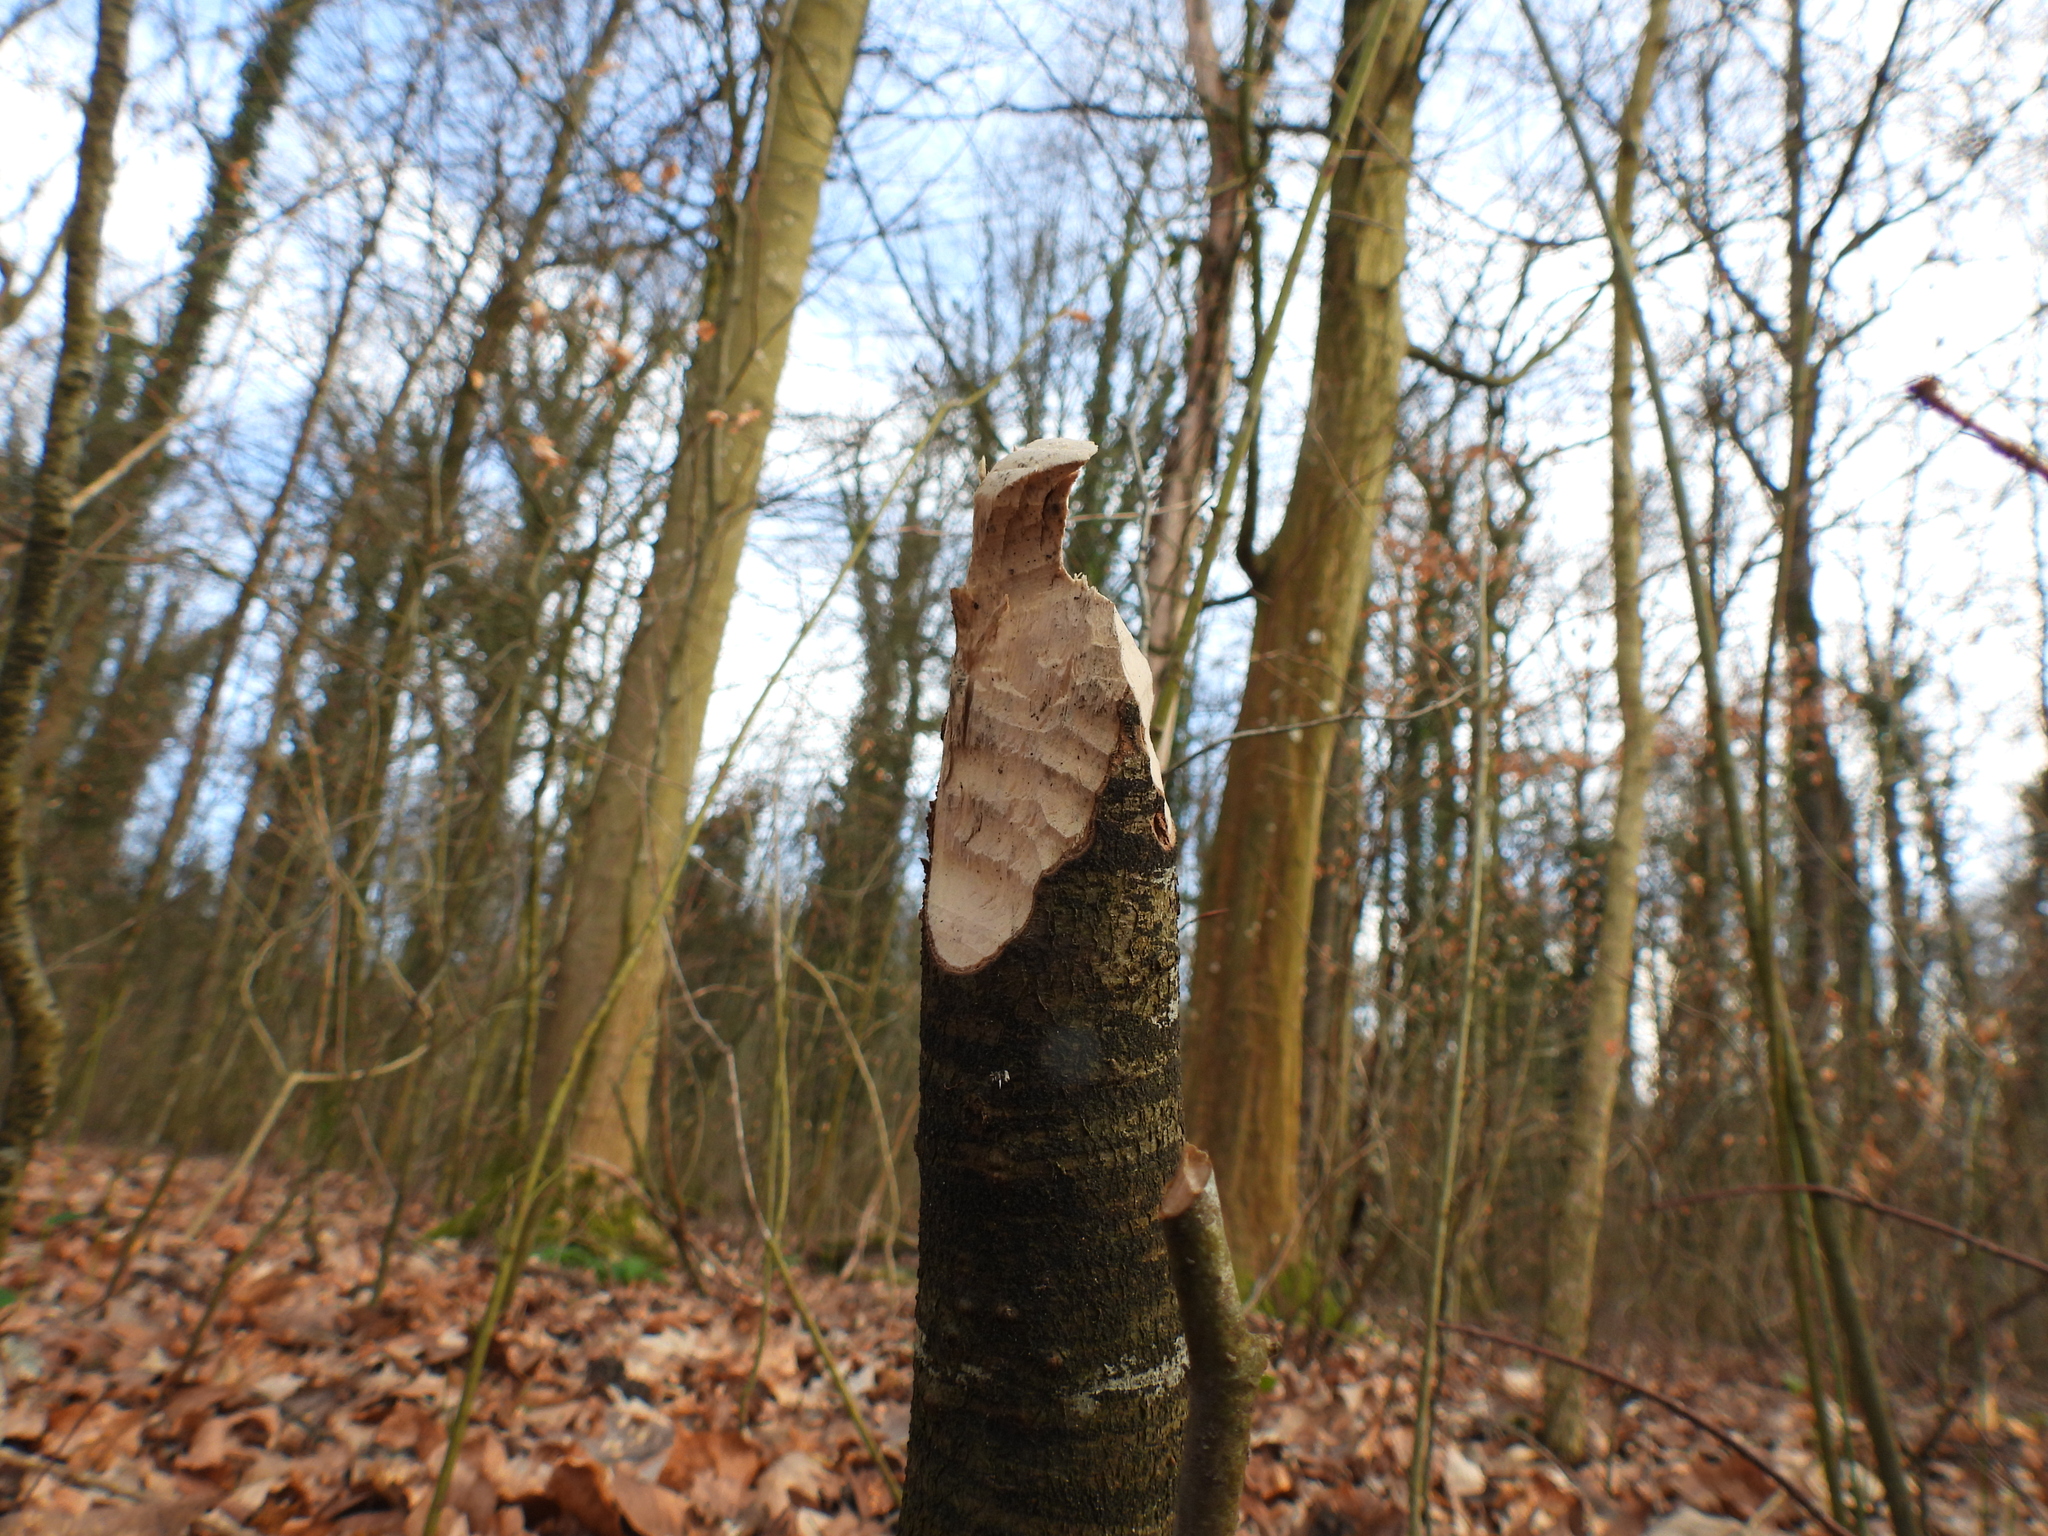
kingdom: Animalia
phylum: Chordata
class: Mammalia
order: Rodentia
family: Castoridae
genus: Castor
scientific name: Castor fiber
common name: Eurasian beaver
